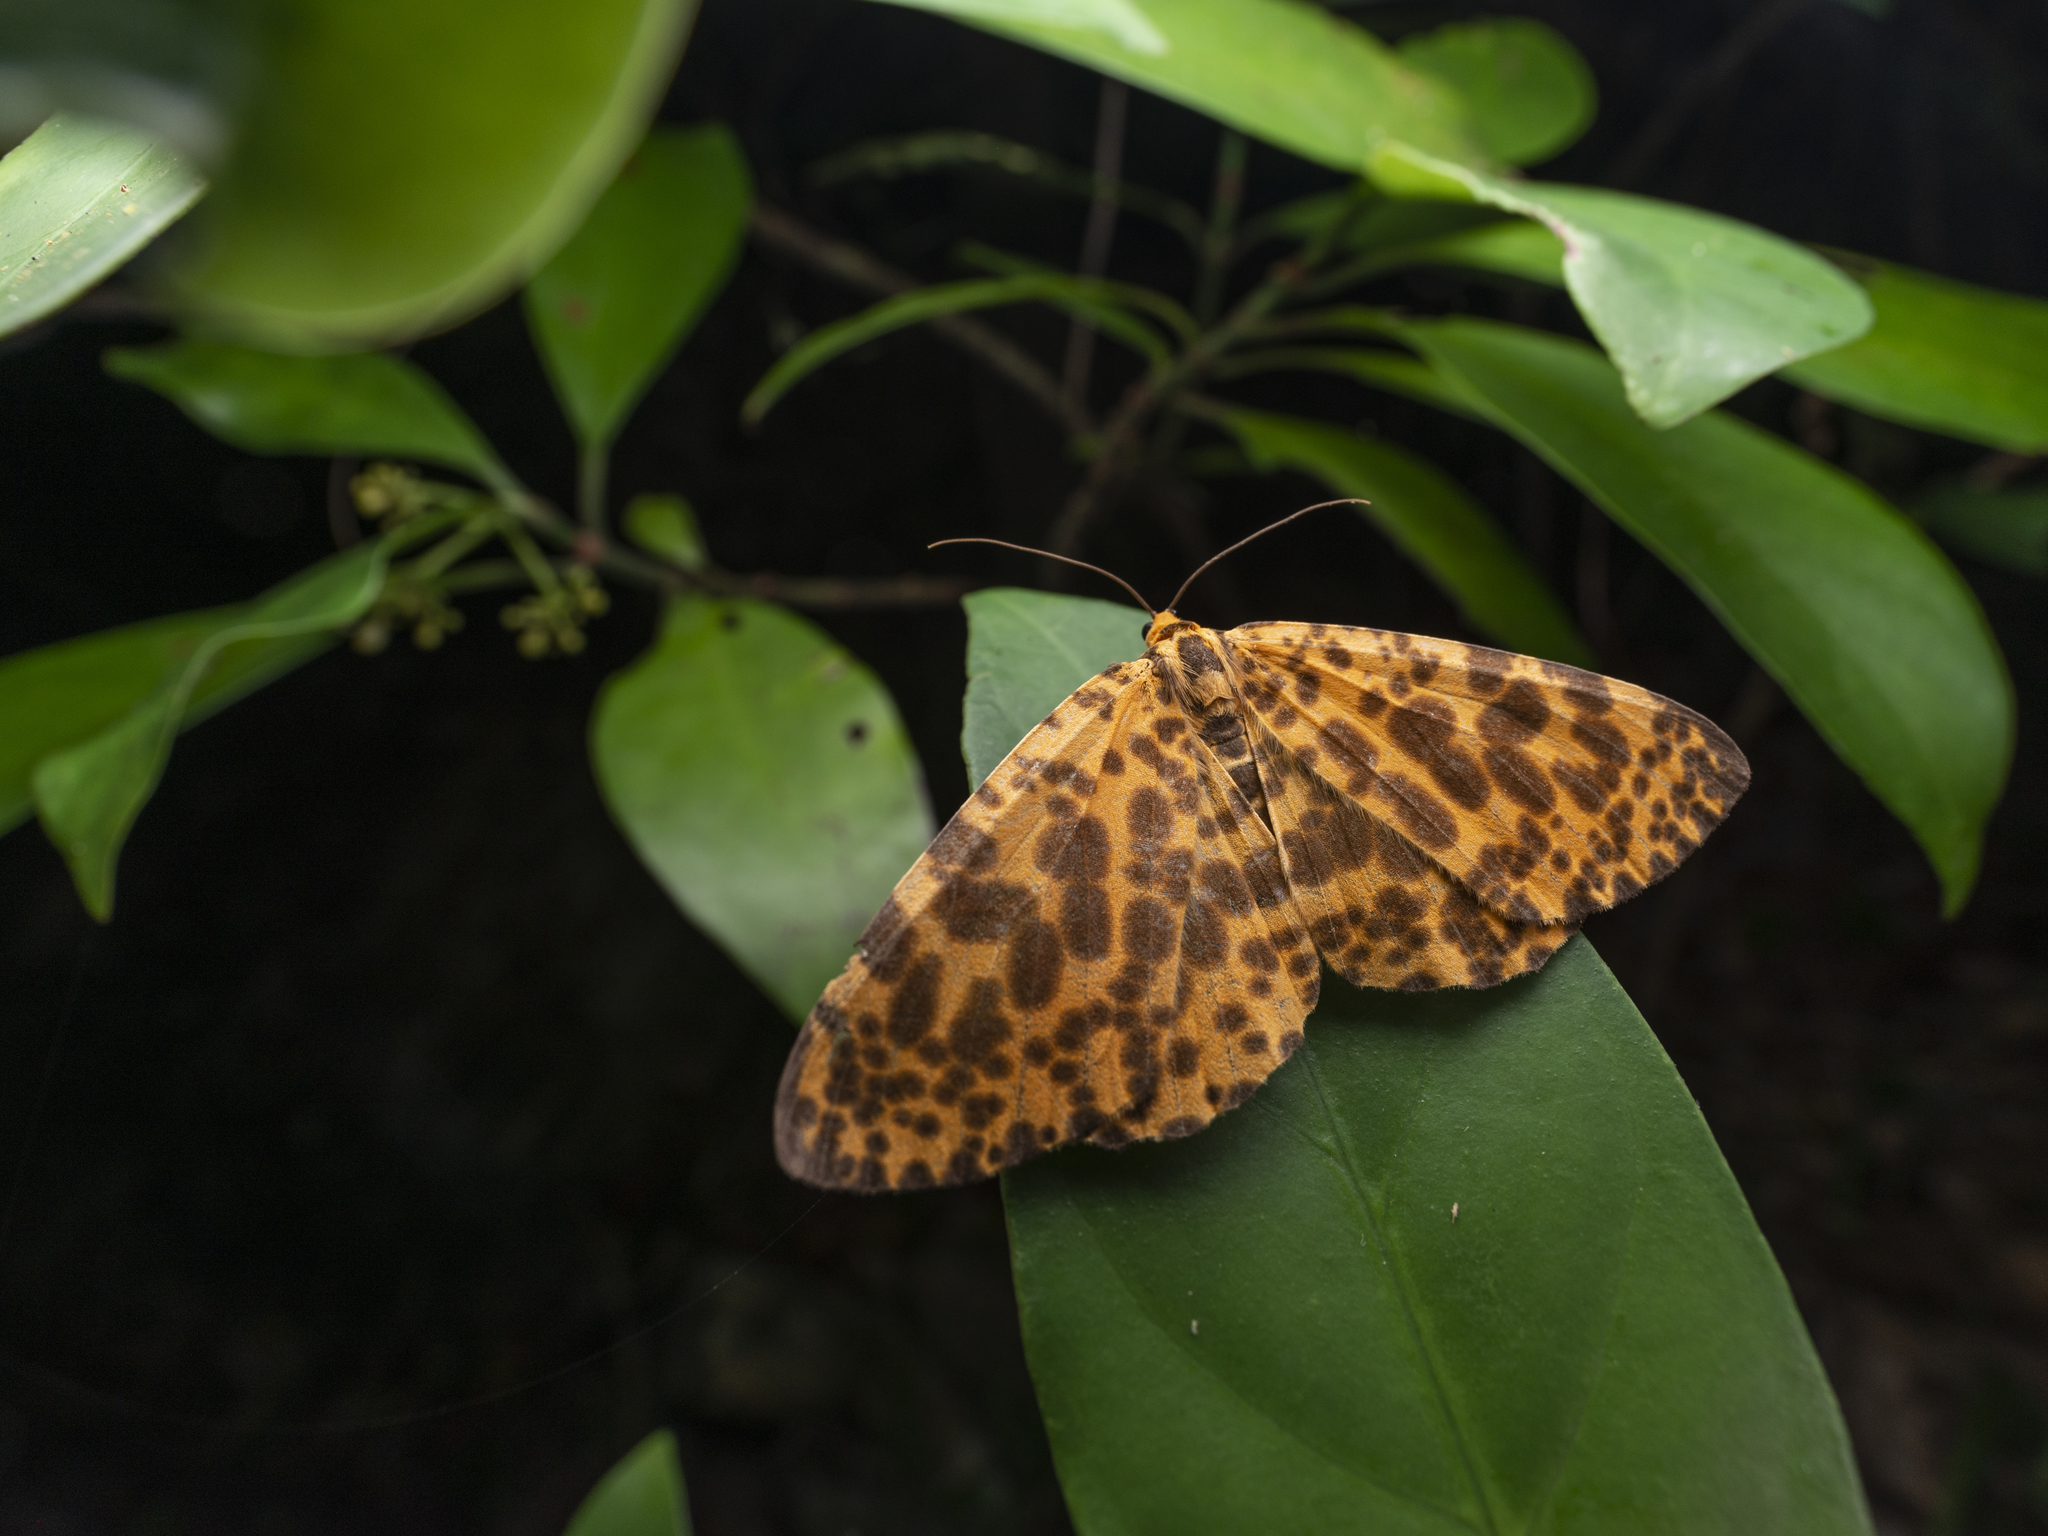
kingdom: Animalia
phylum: Arthropoda
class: Insecta
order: Lepidoptera
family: Geometridae
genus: Obeidia
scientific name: Obeidia Epobeidia tigrata
